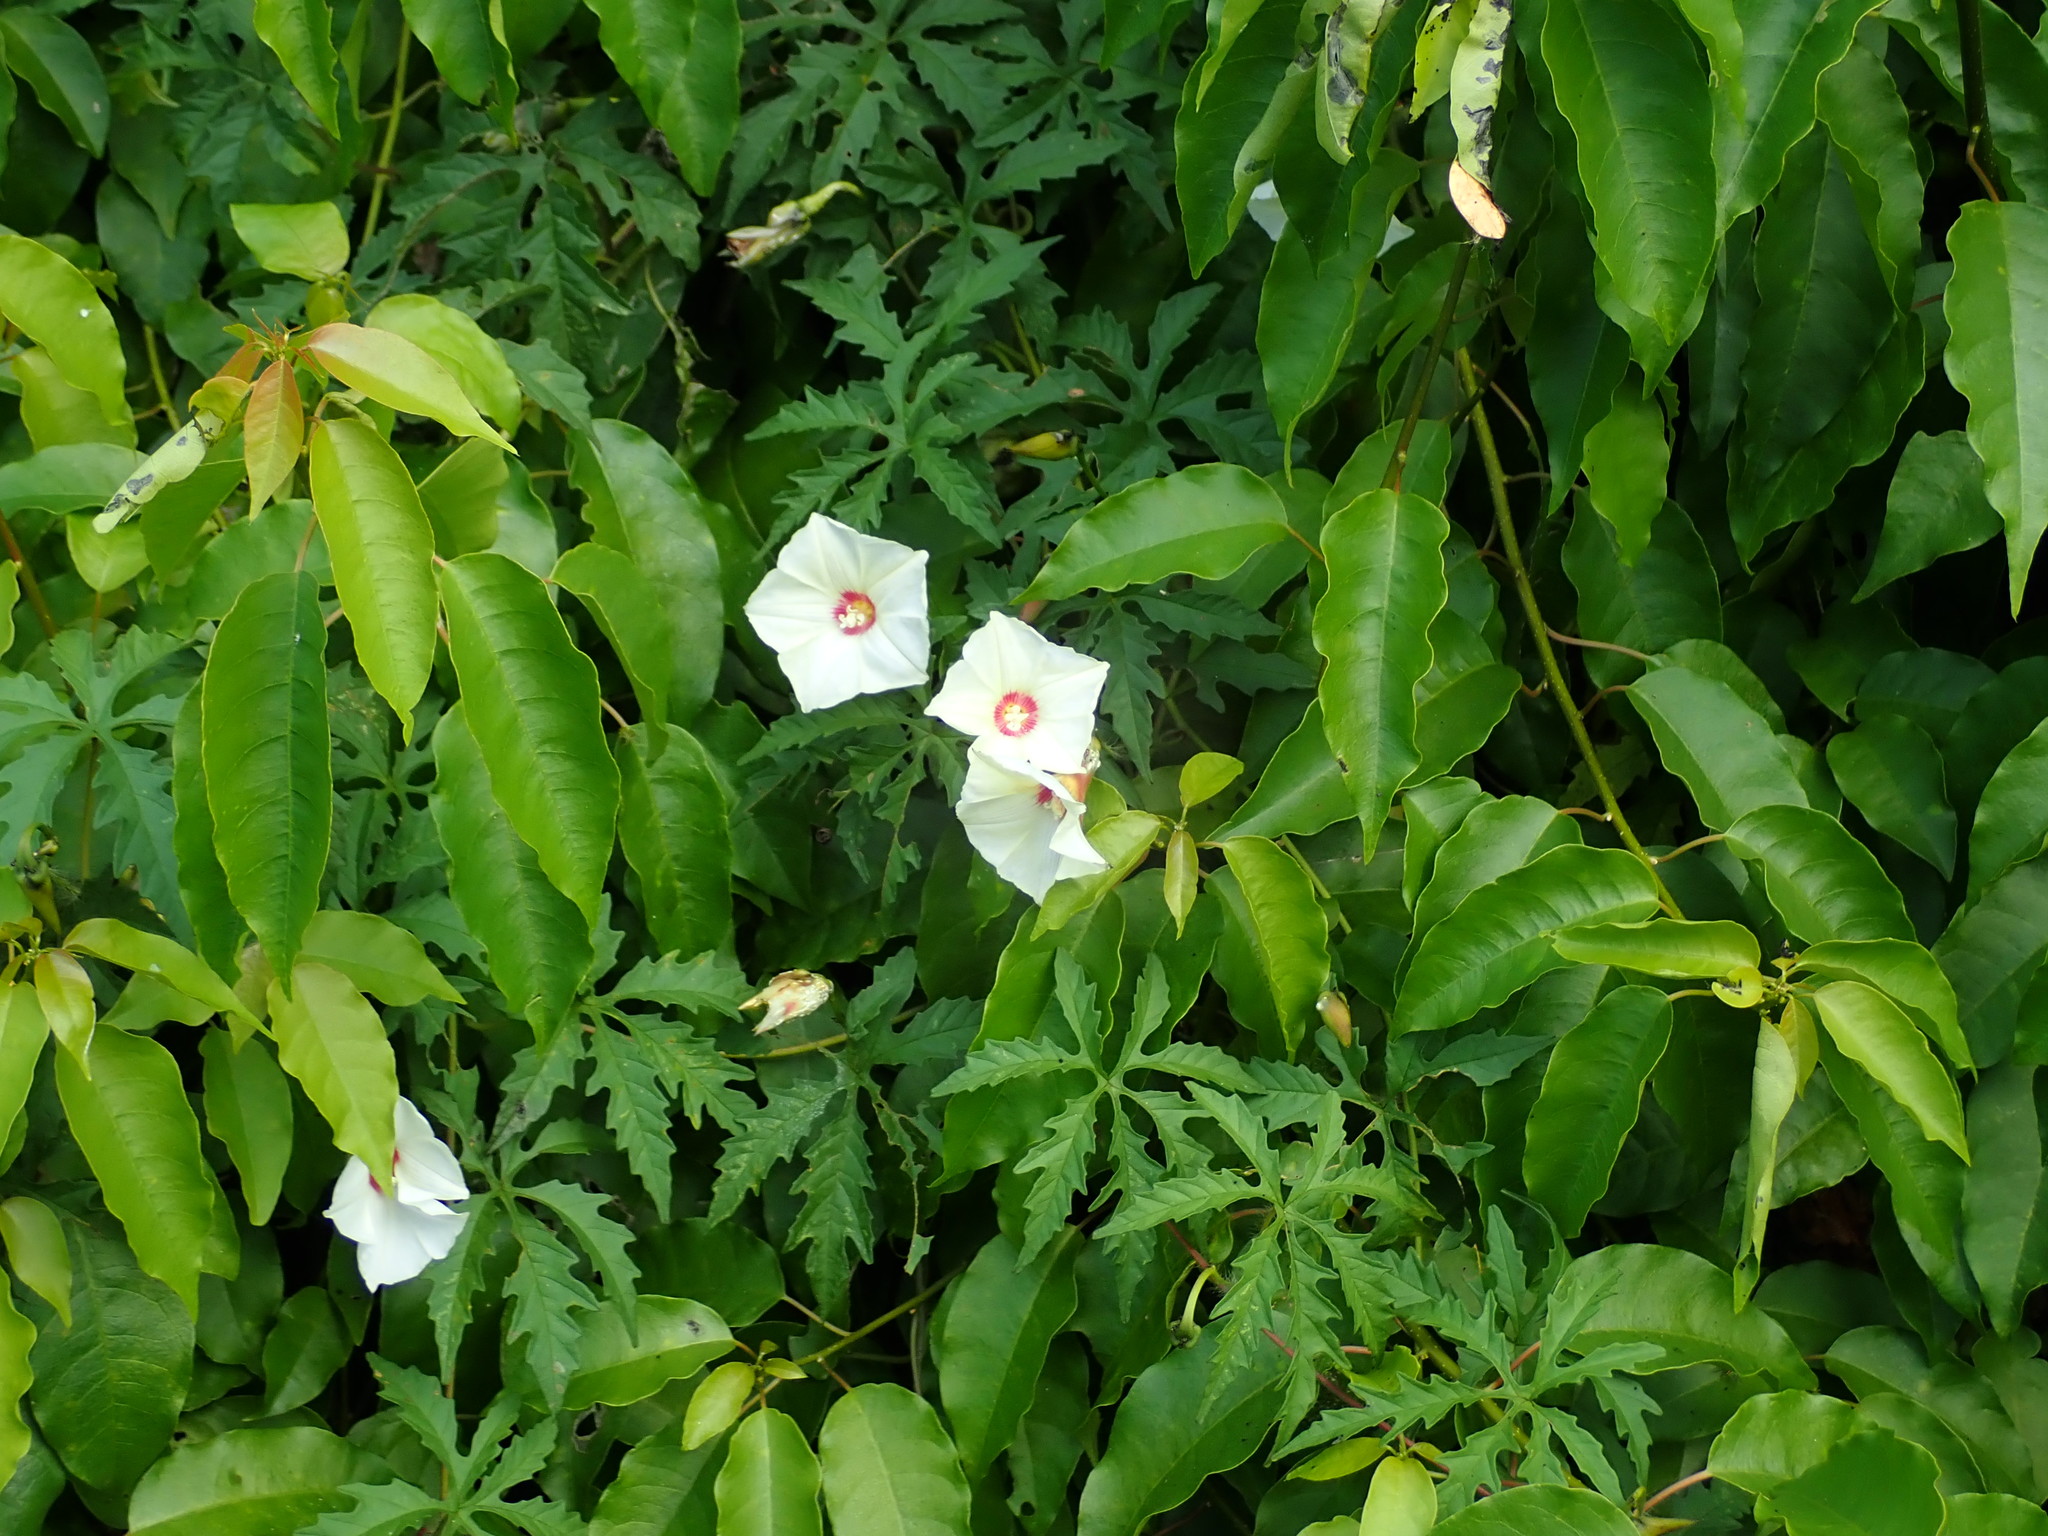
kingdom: Plantae
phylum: Tracheophyta
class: Magnoliopsida
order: Solanales
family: Convolvulaceae
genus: Distimake
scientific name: Distimake dissectus
